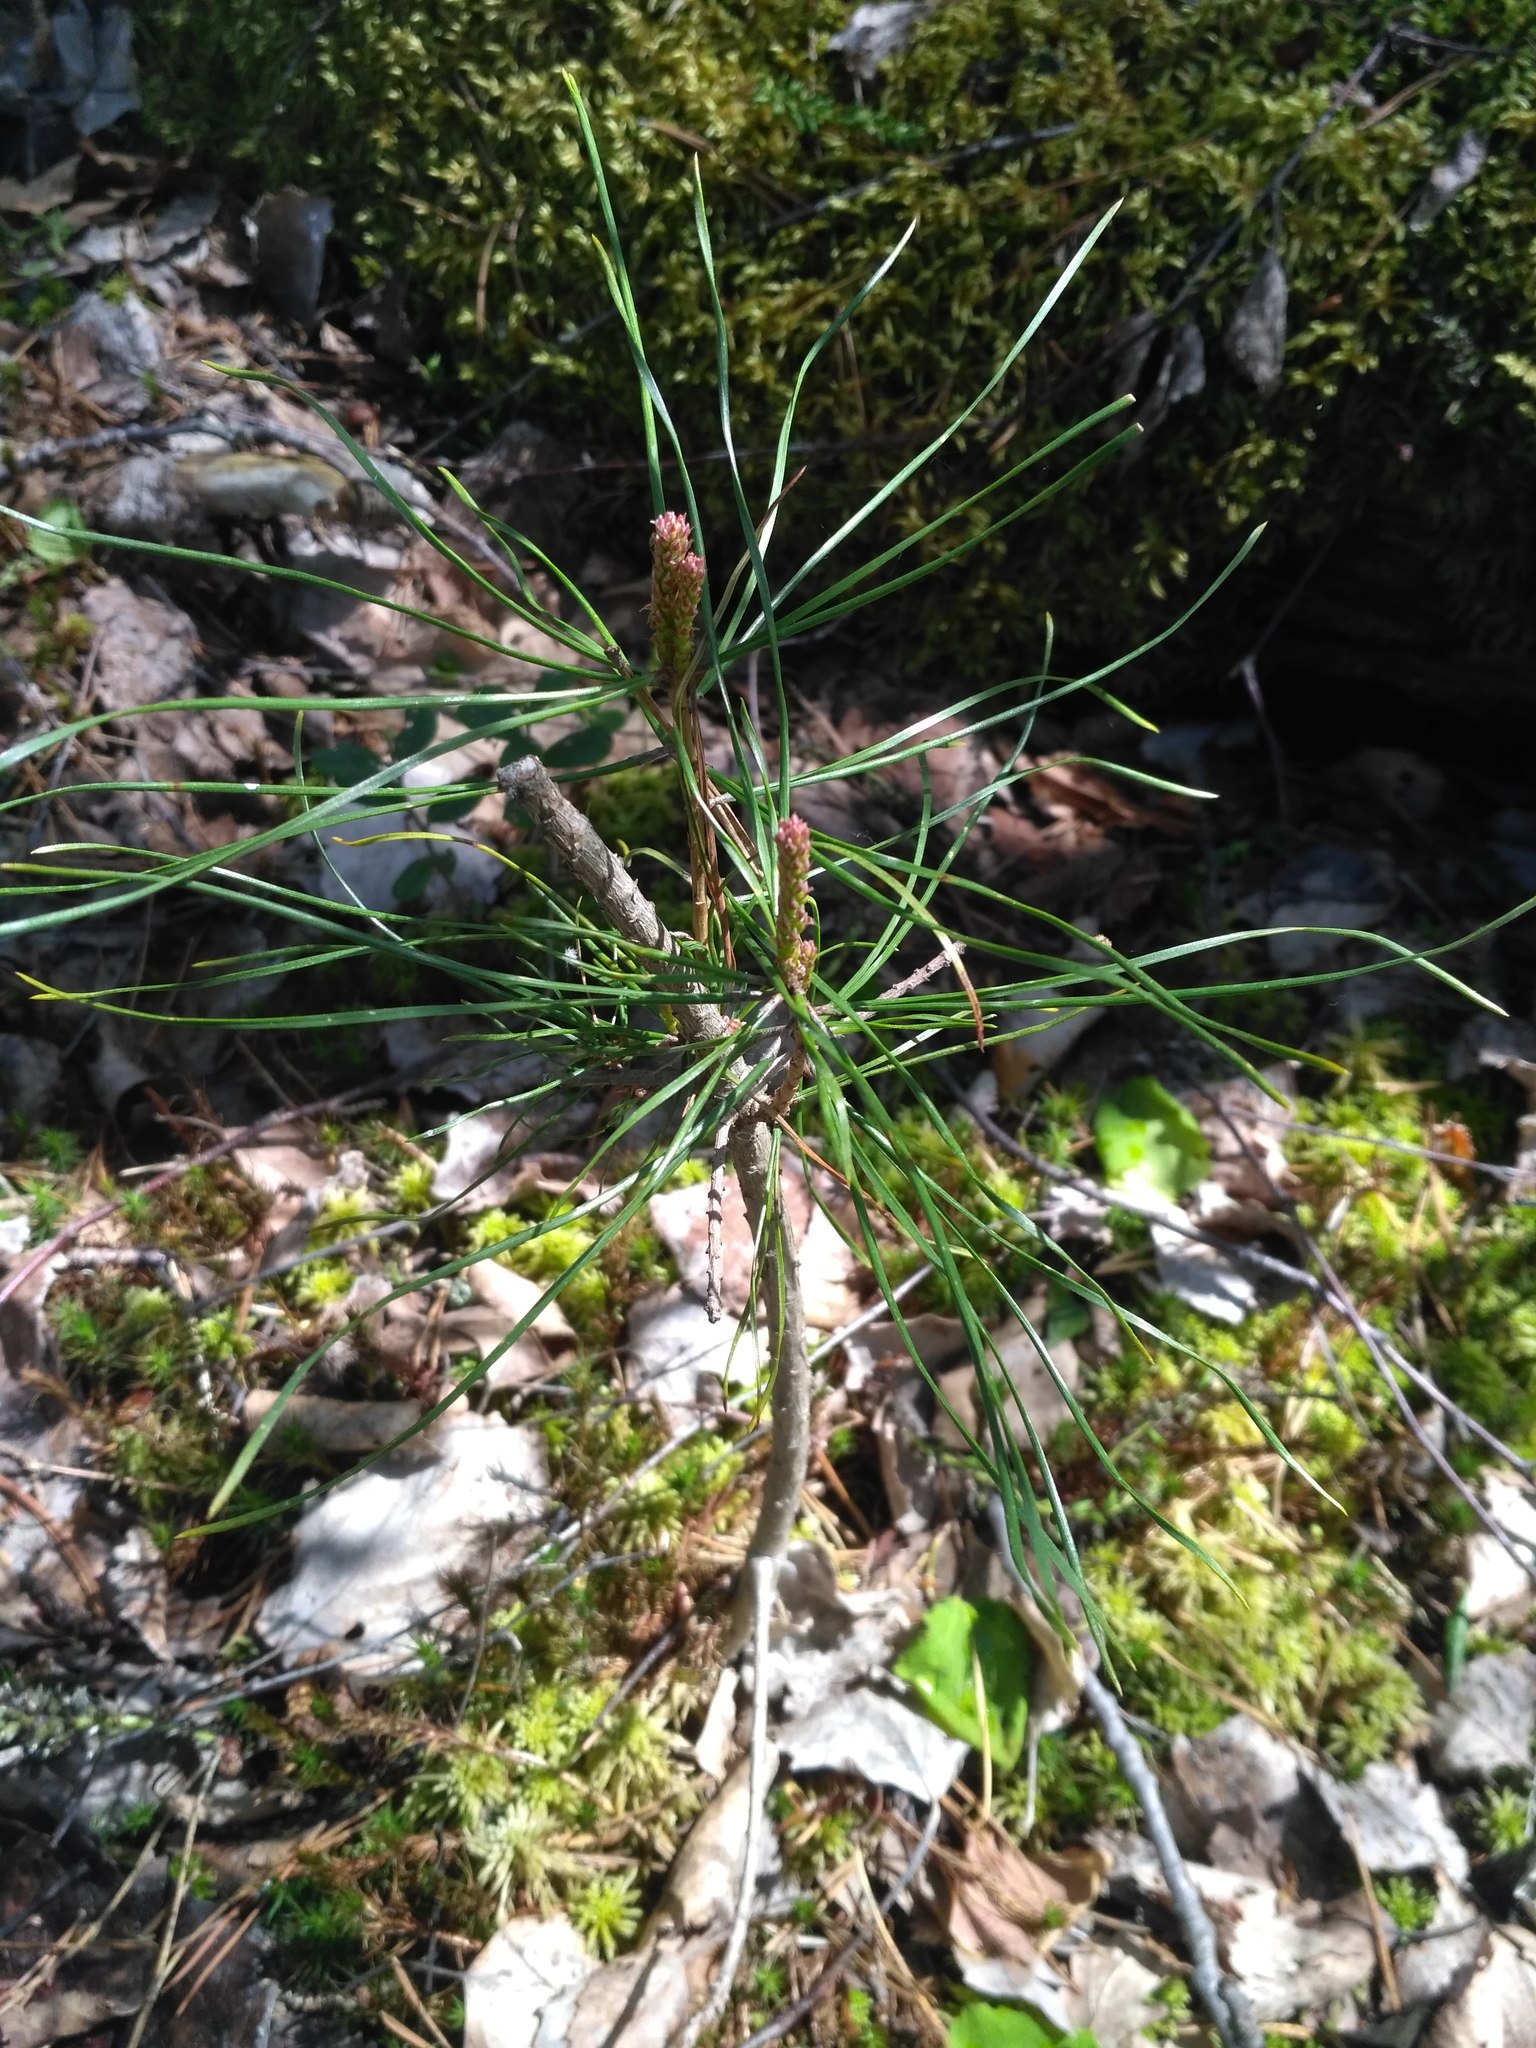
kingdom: Plantae
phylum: Tracheophyta
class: Pinopsida
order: Pinales
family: Pinaceae
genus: Pinus
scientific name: Pinus sylvestris
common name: Scots pine
